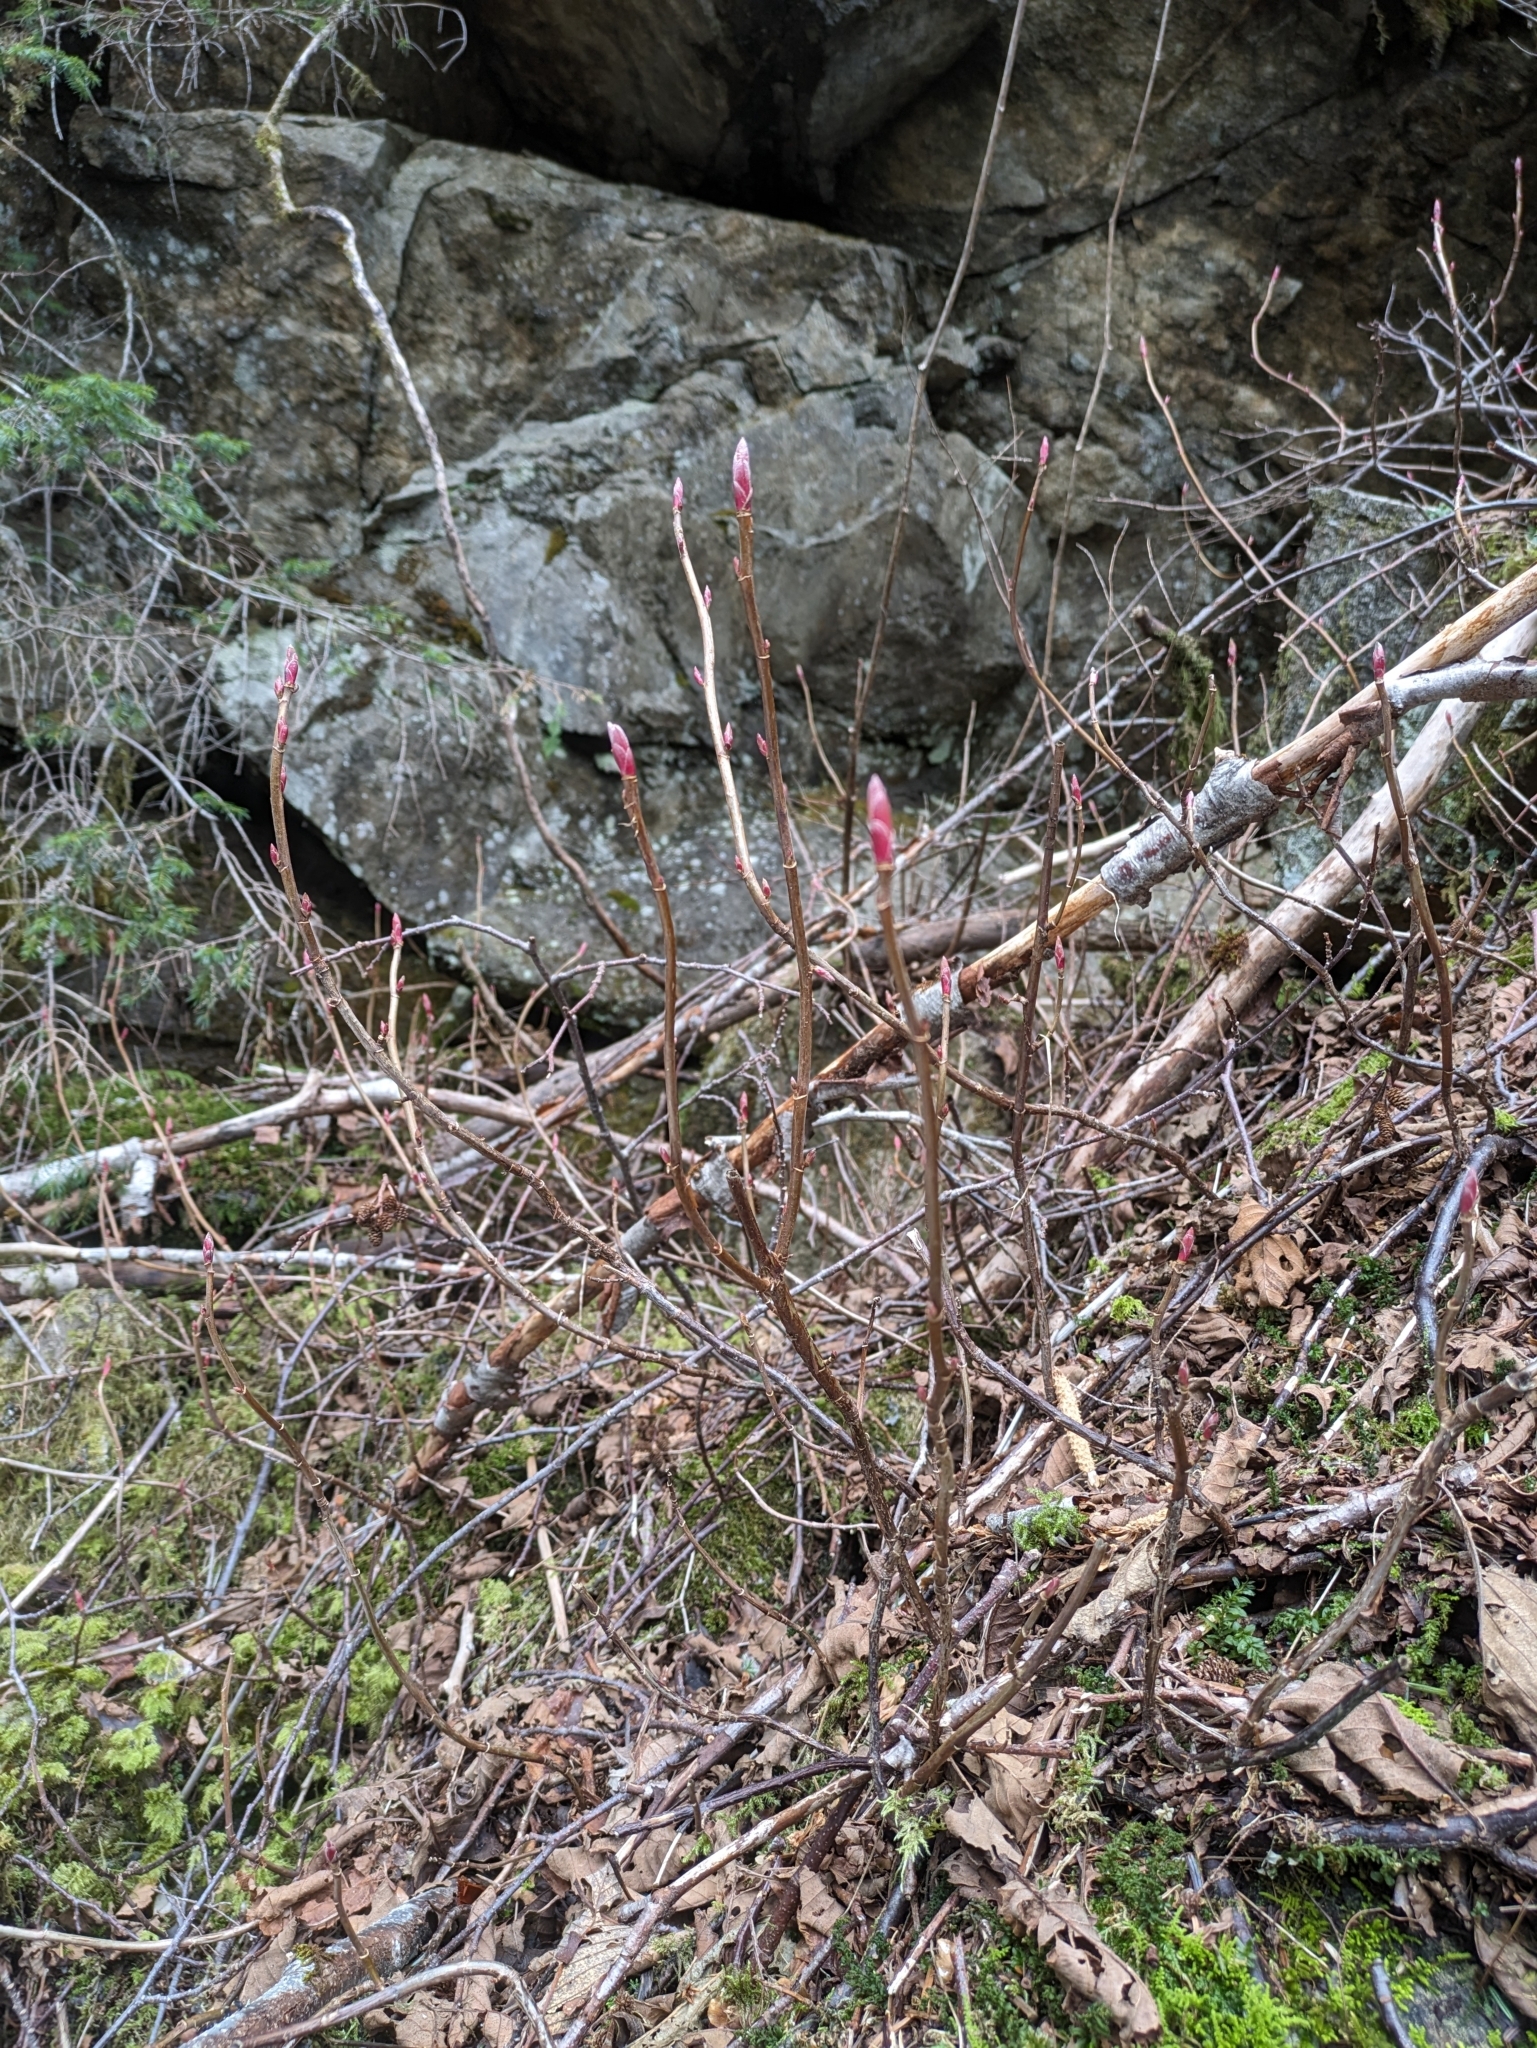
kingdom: Plantae
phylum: Tracheophyta
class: Magnoliopsida
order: Saxifragales
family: Grossulariaceae
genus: Ribes
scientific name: Ribes laxiflorum
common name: Spreading currant
